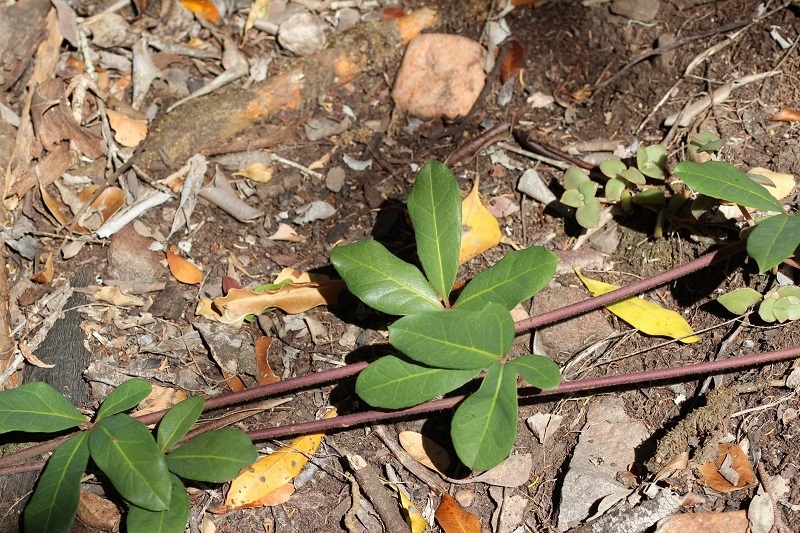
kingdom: Plantae
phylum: Tracheophyta
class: Magnoliopsida
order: Vitales
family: Vitaceae
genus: Rhoicissus
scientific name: Rhoicissus digitata
